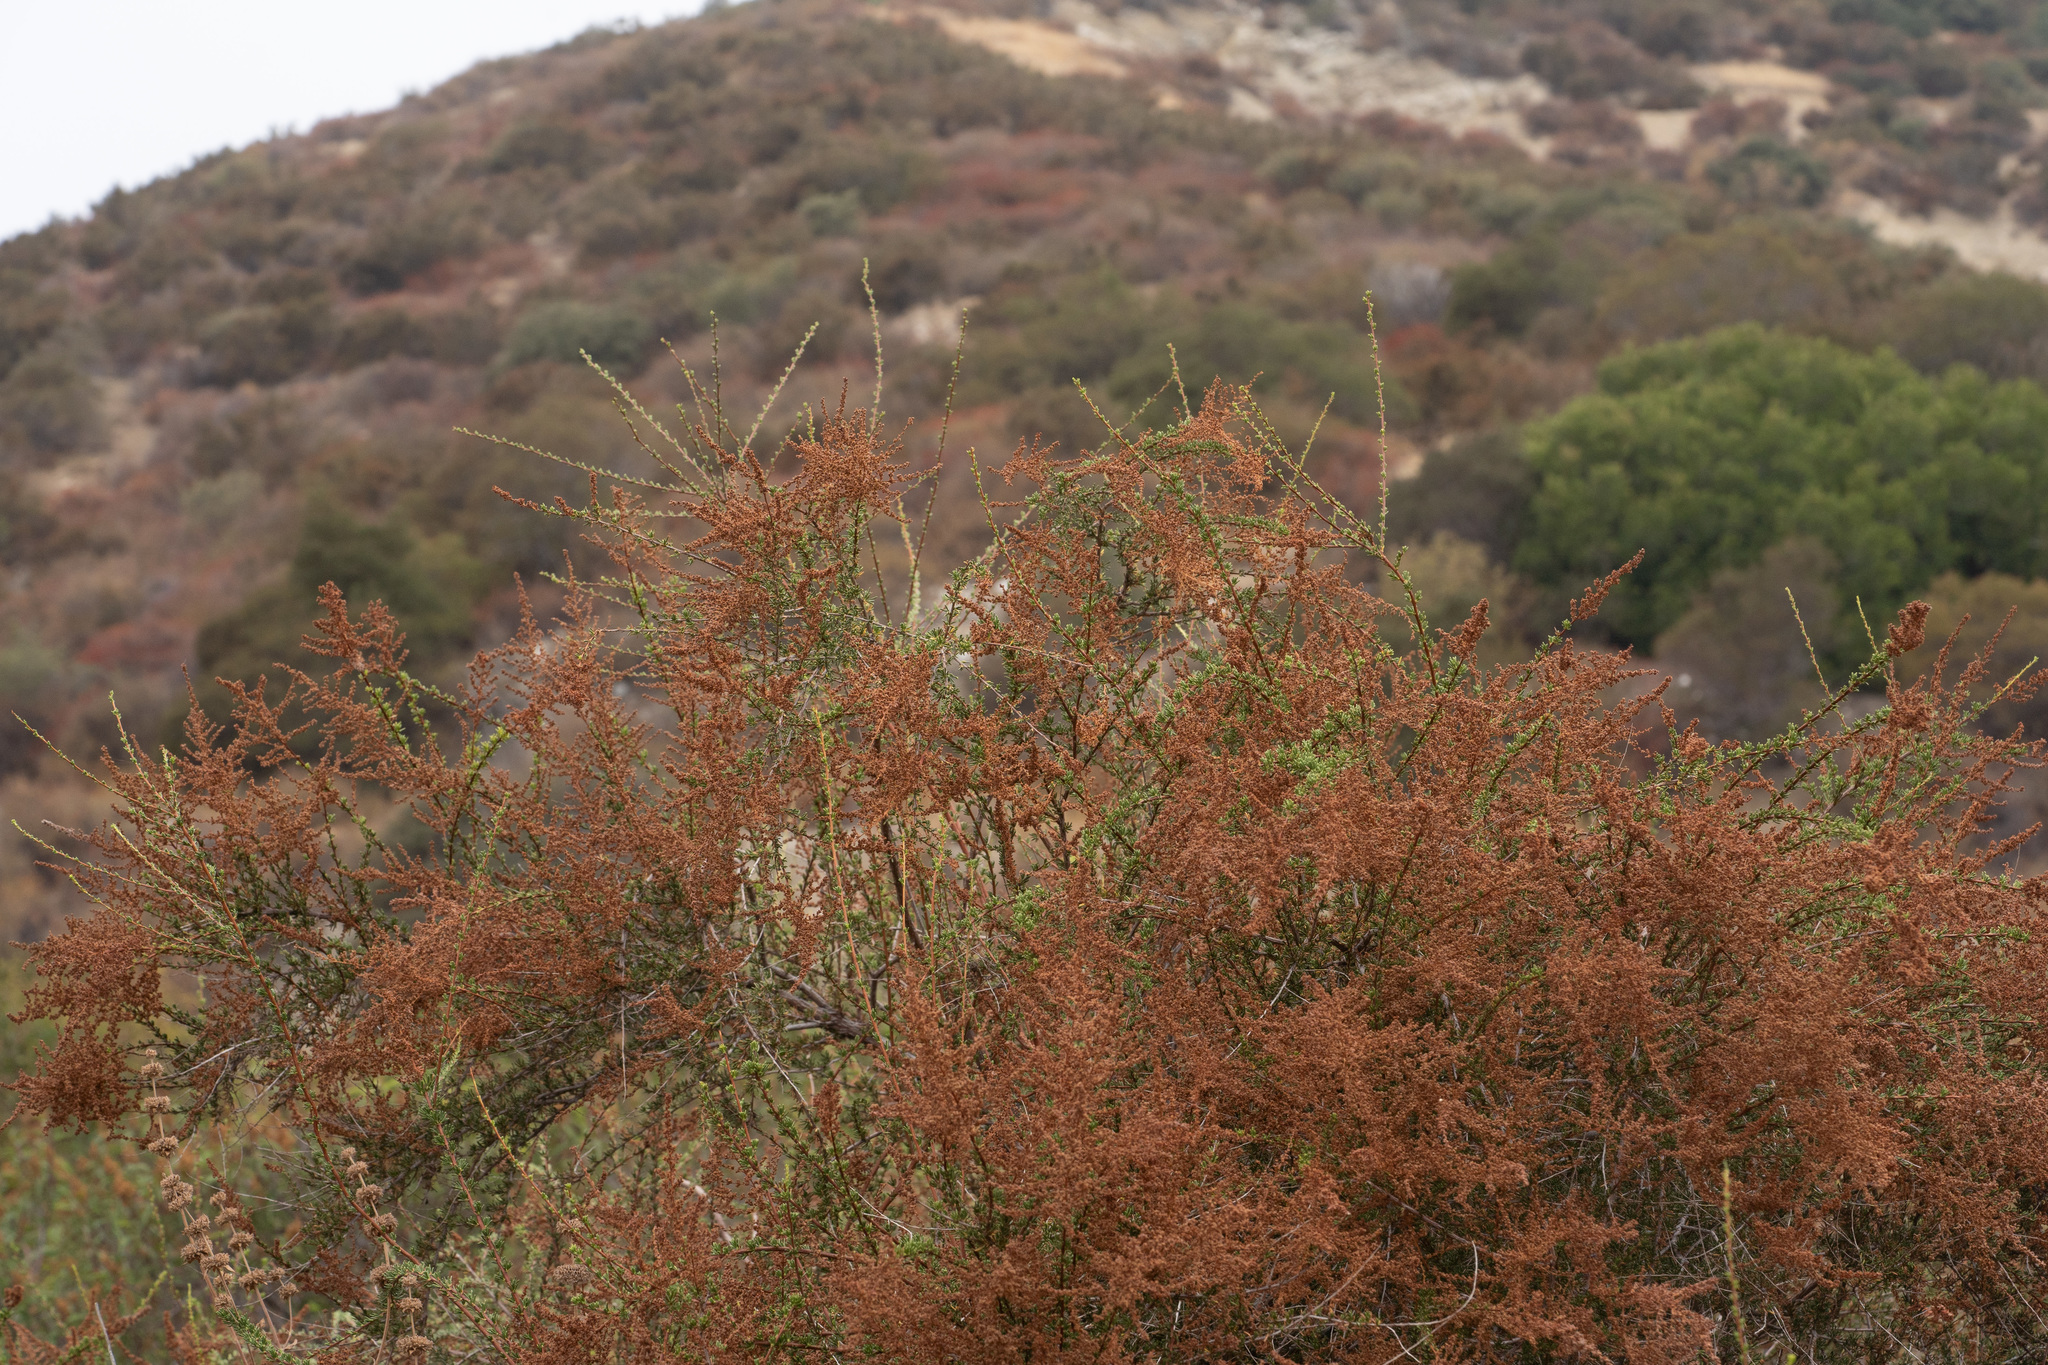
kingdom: Plantae
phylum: Tracheophyta
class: Magnoliopsida
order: Rosales
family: Rosaceae
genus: Adenostoma
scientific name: Adenostoma fasciculatum
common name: Chamise
